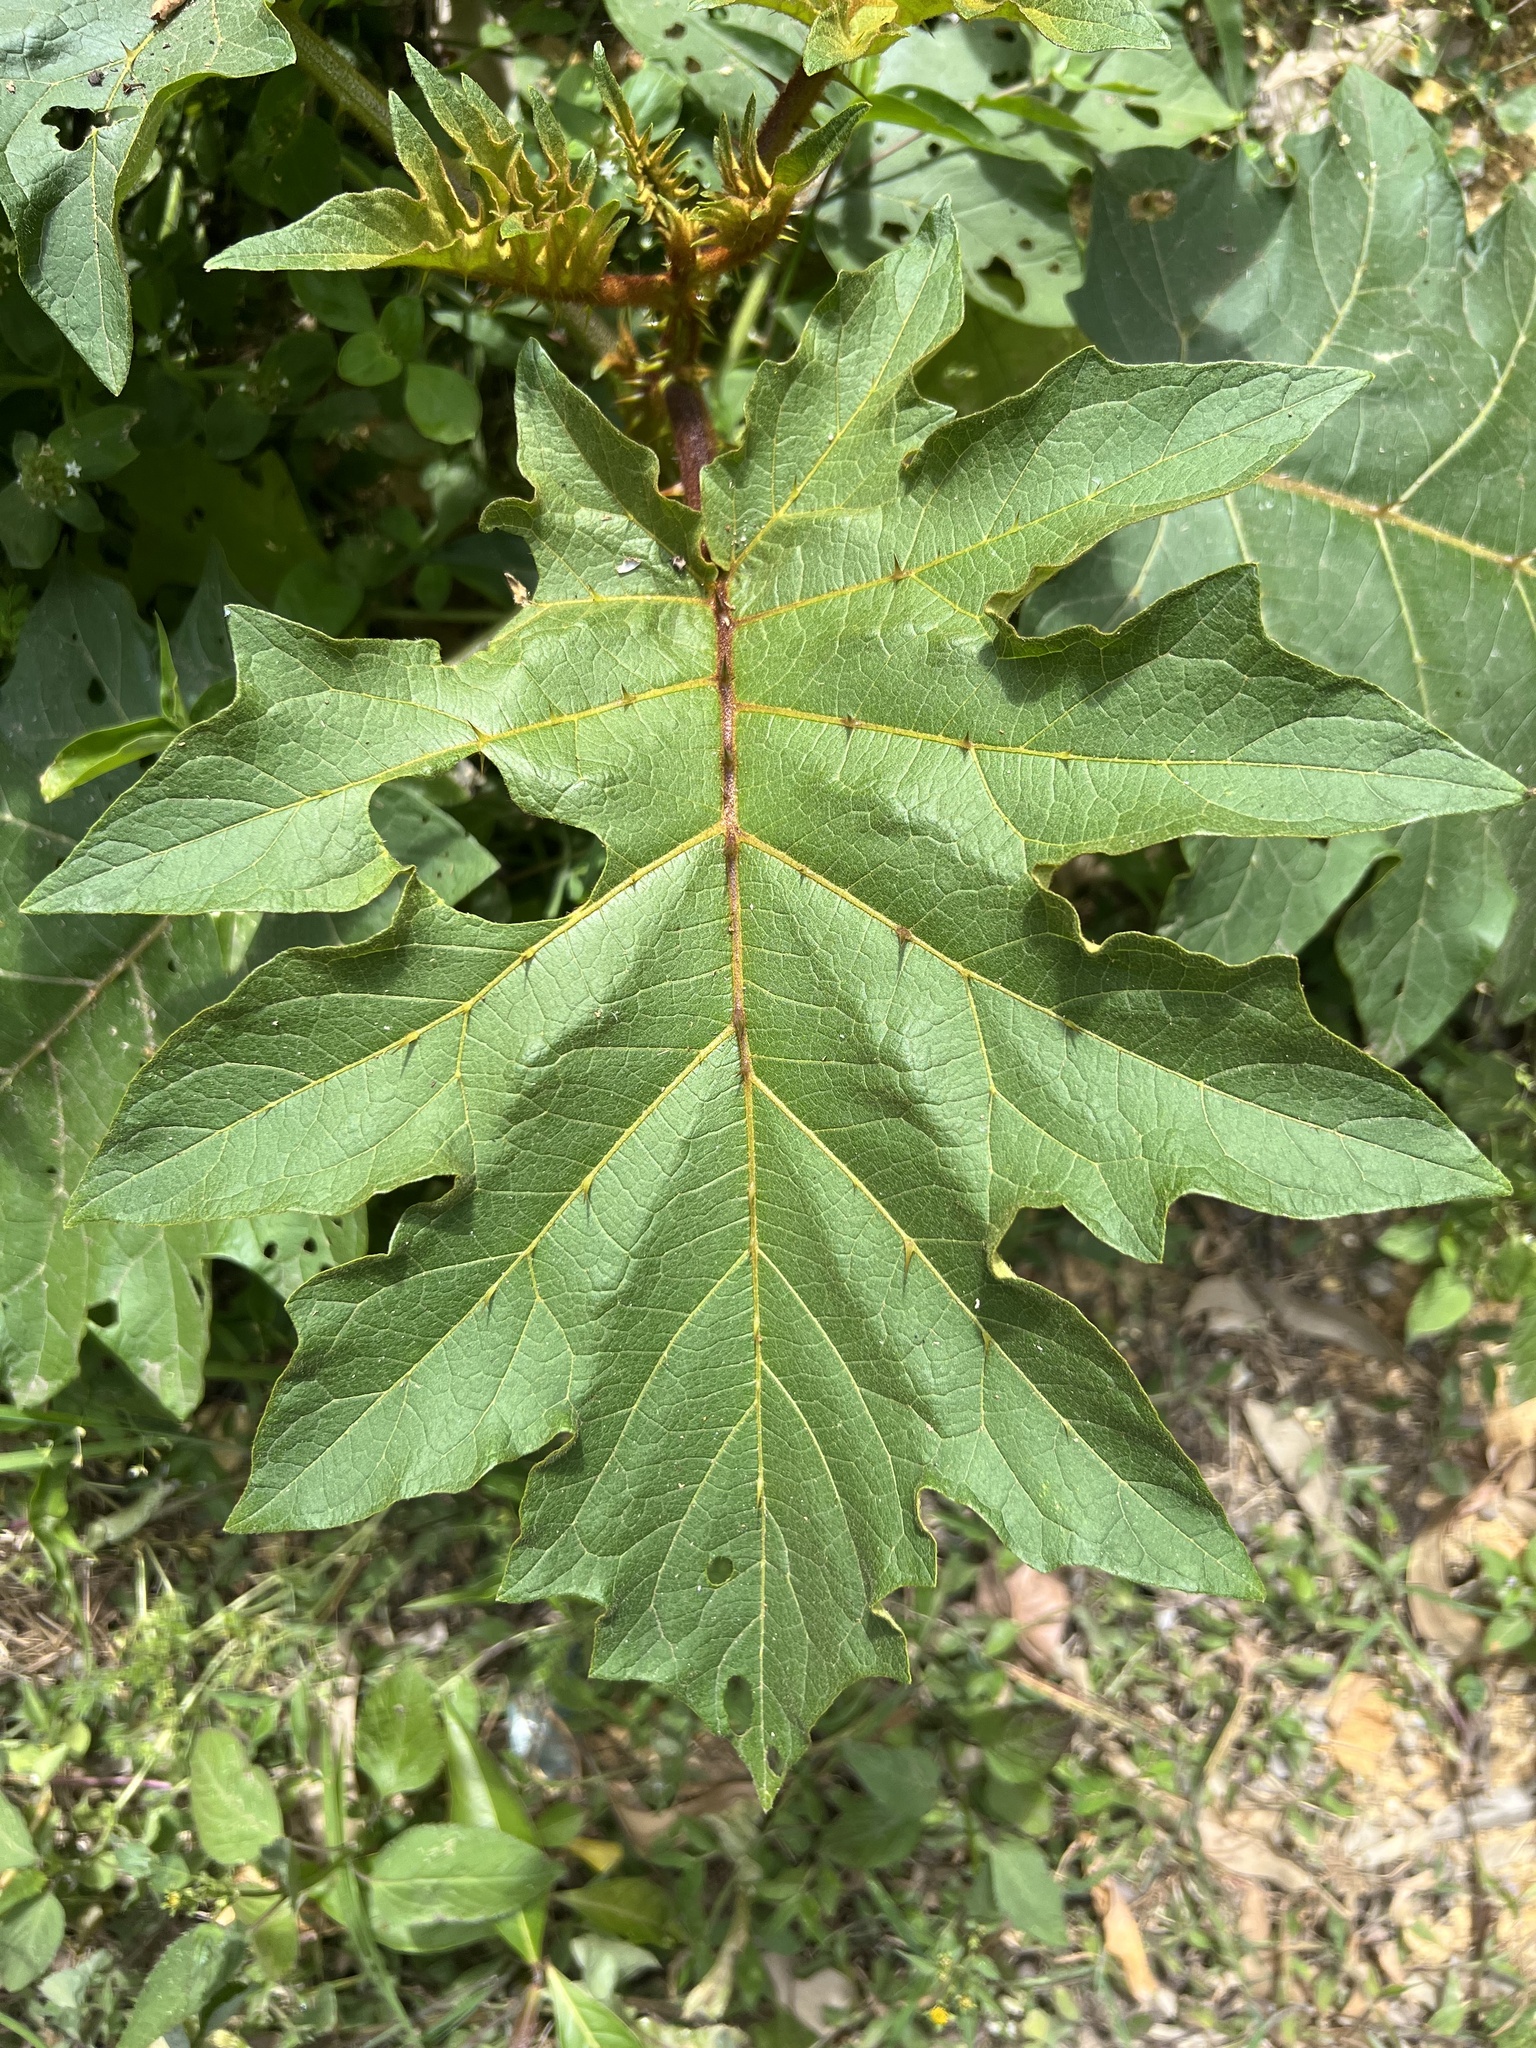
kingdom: Plantae
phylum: Tracheophyta
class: Magnoliopsida
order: Solanales
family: Solanaceae
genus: Solanum
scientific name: Solanum chrysotrichum
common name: Nightshade
